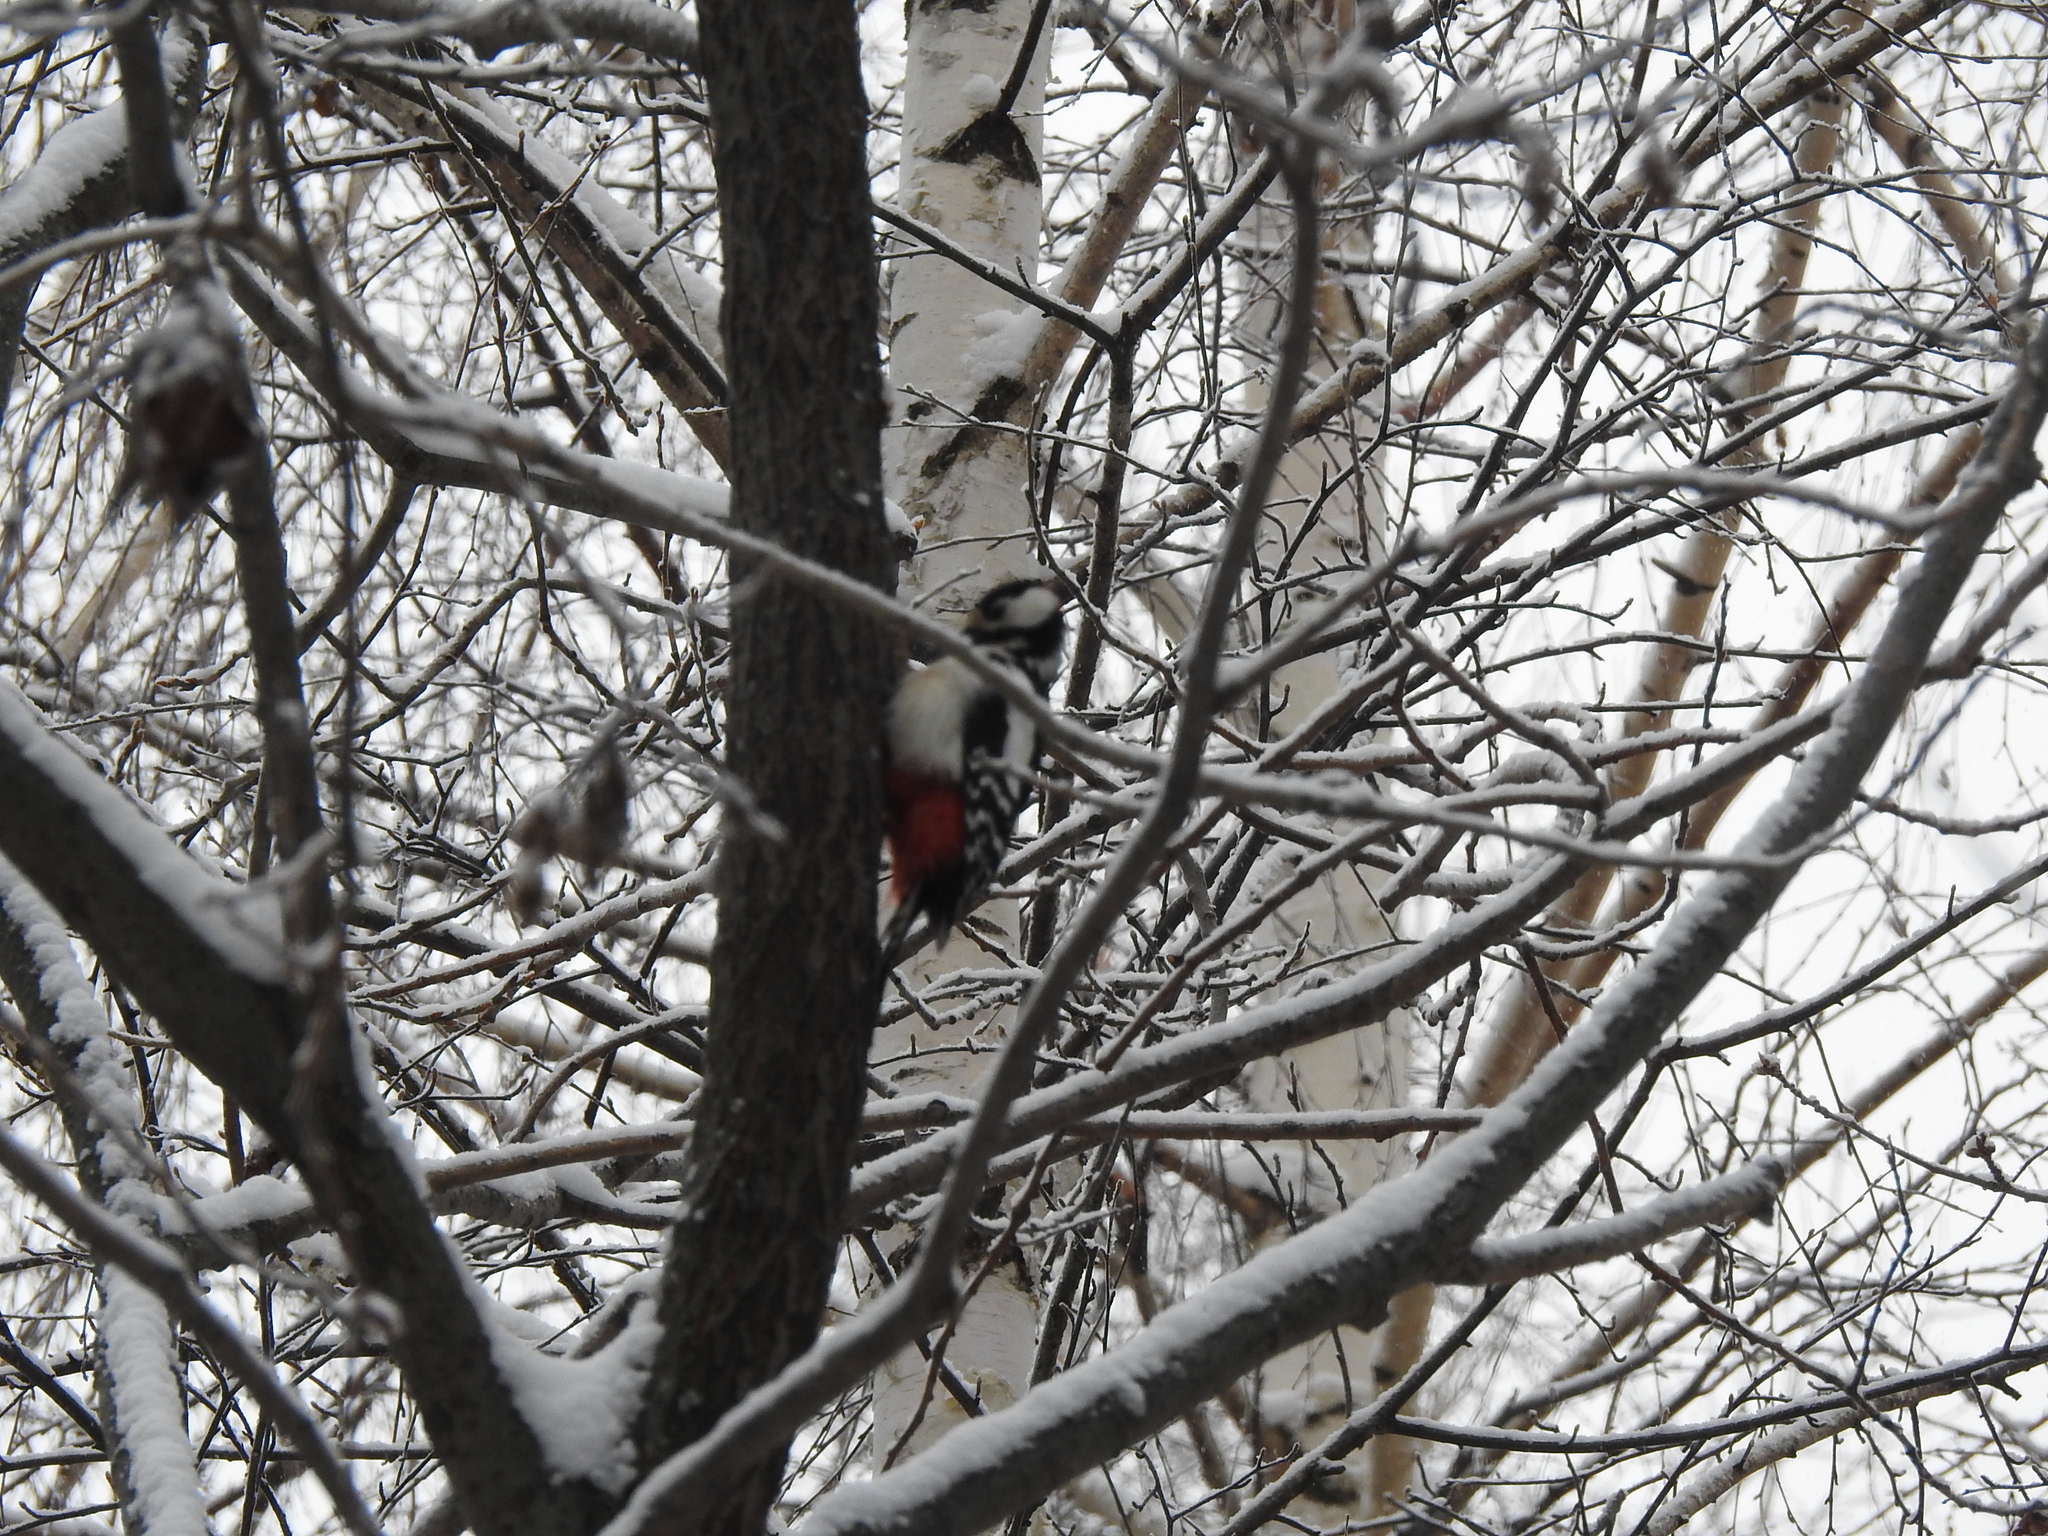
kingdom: Animalia
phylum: Chordata
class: Aves
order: Piciformes
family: Picidae
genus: Dendrocopos
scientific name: Dendrocopos major
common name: Great spotted woodpecker
